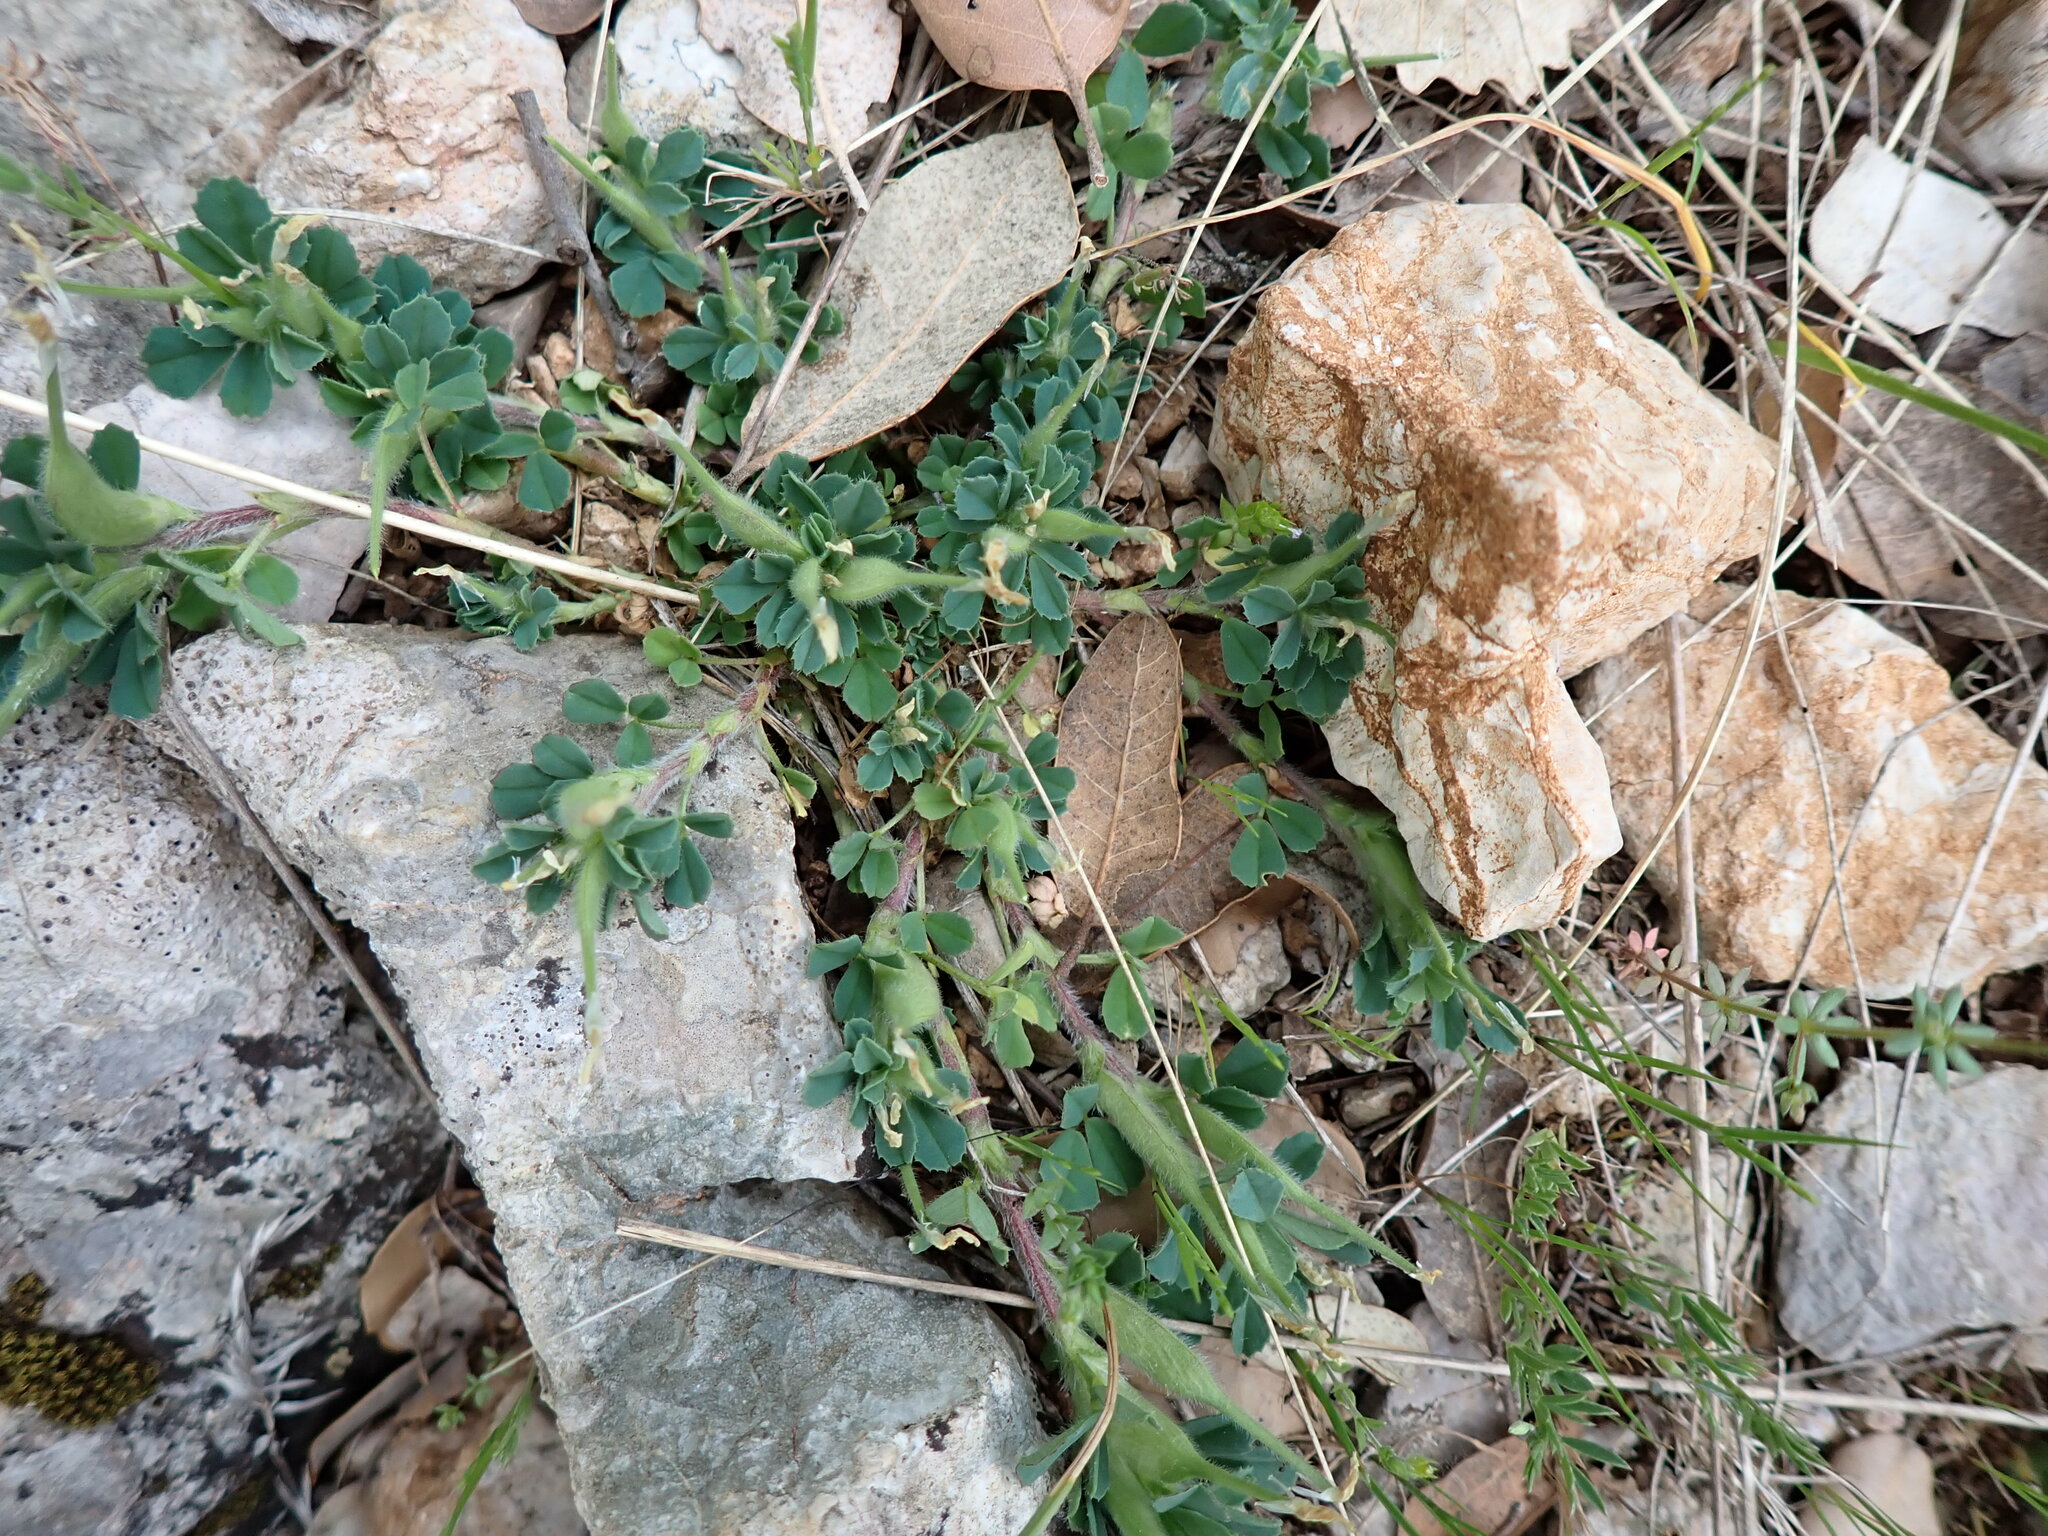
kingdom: Plantae
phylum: Tracheophyta
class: Magnoliopsida
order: Fabales
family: Fabaceae
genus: Trigonella
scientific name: Trigonella gladiata
